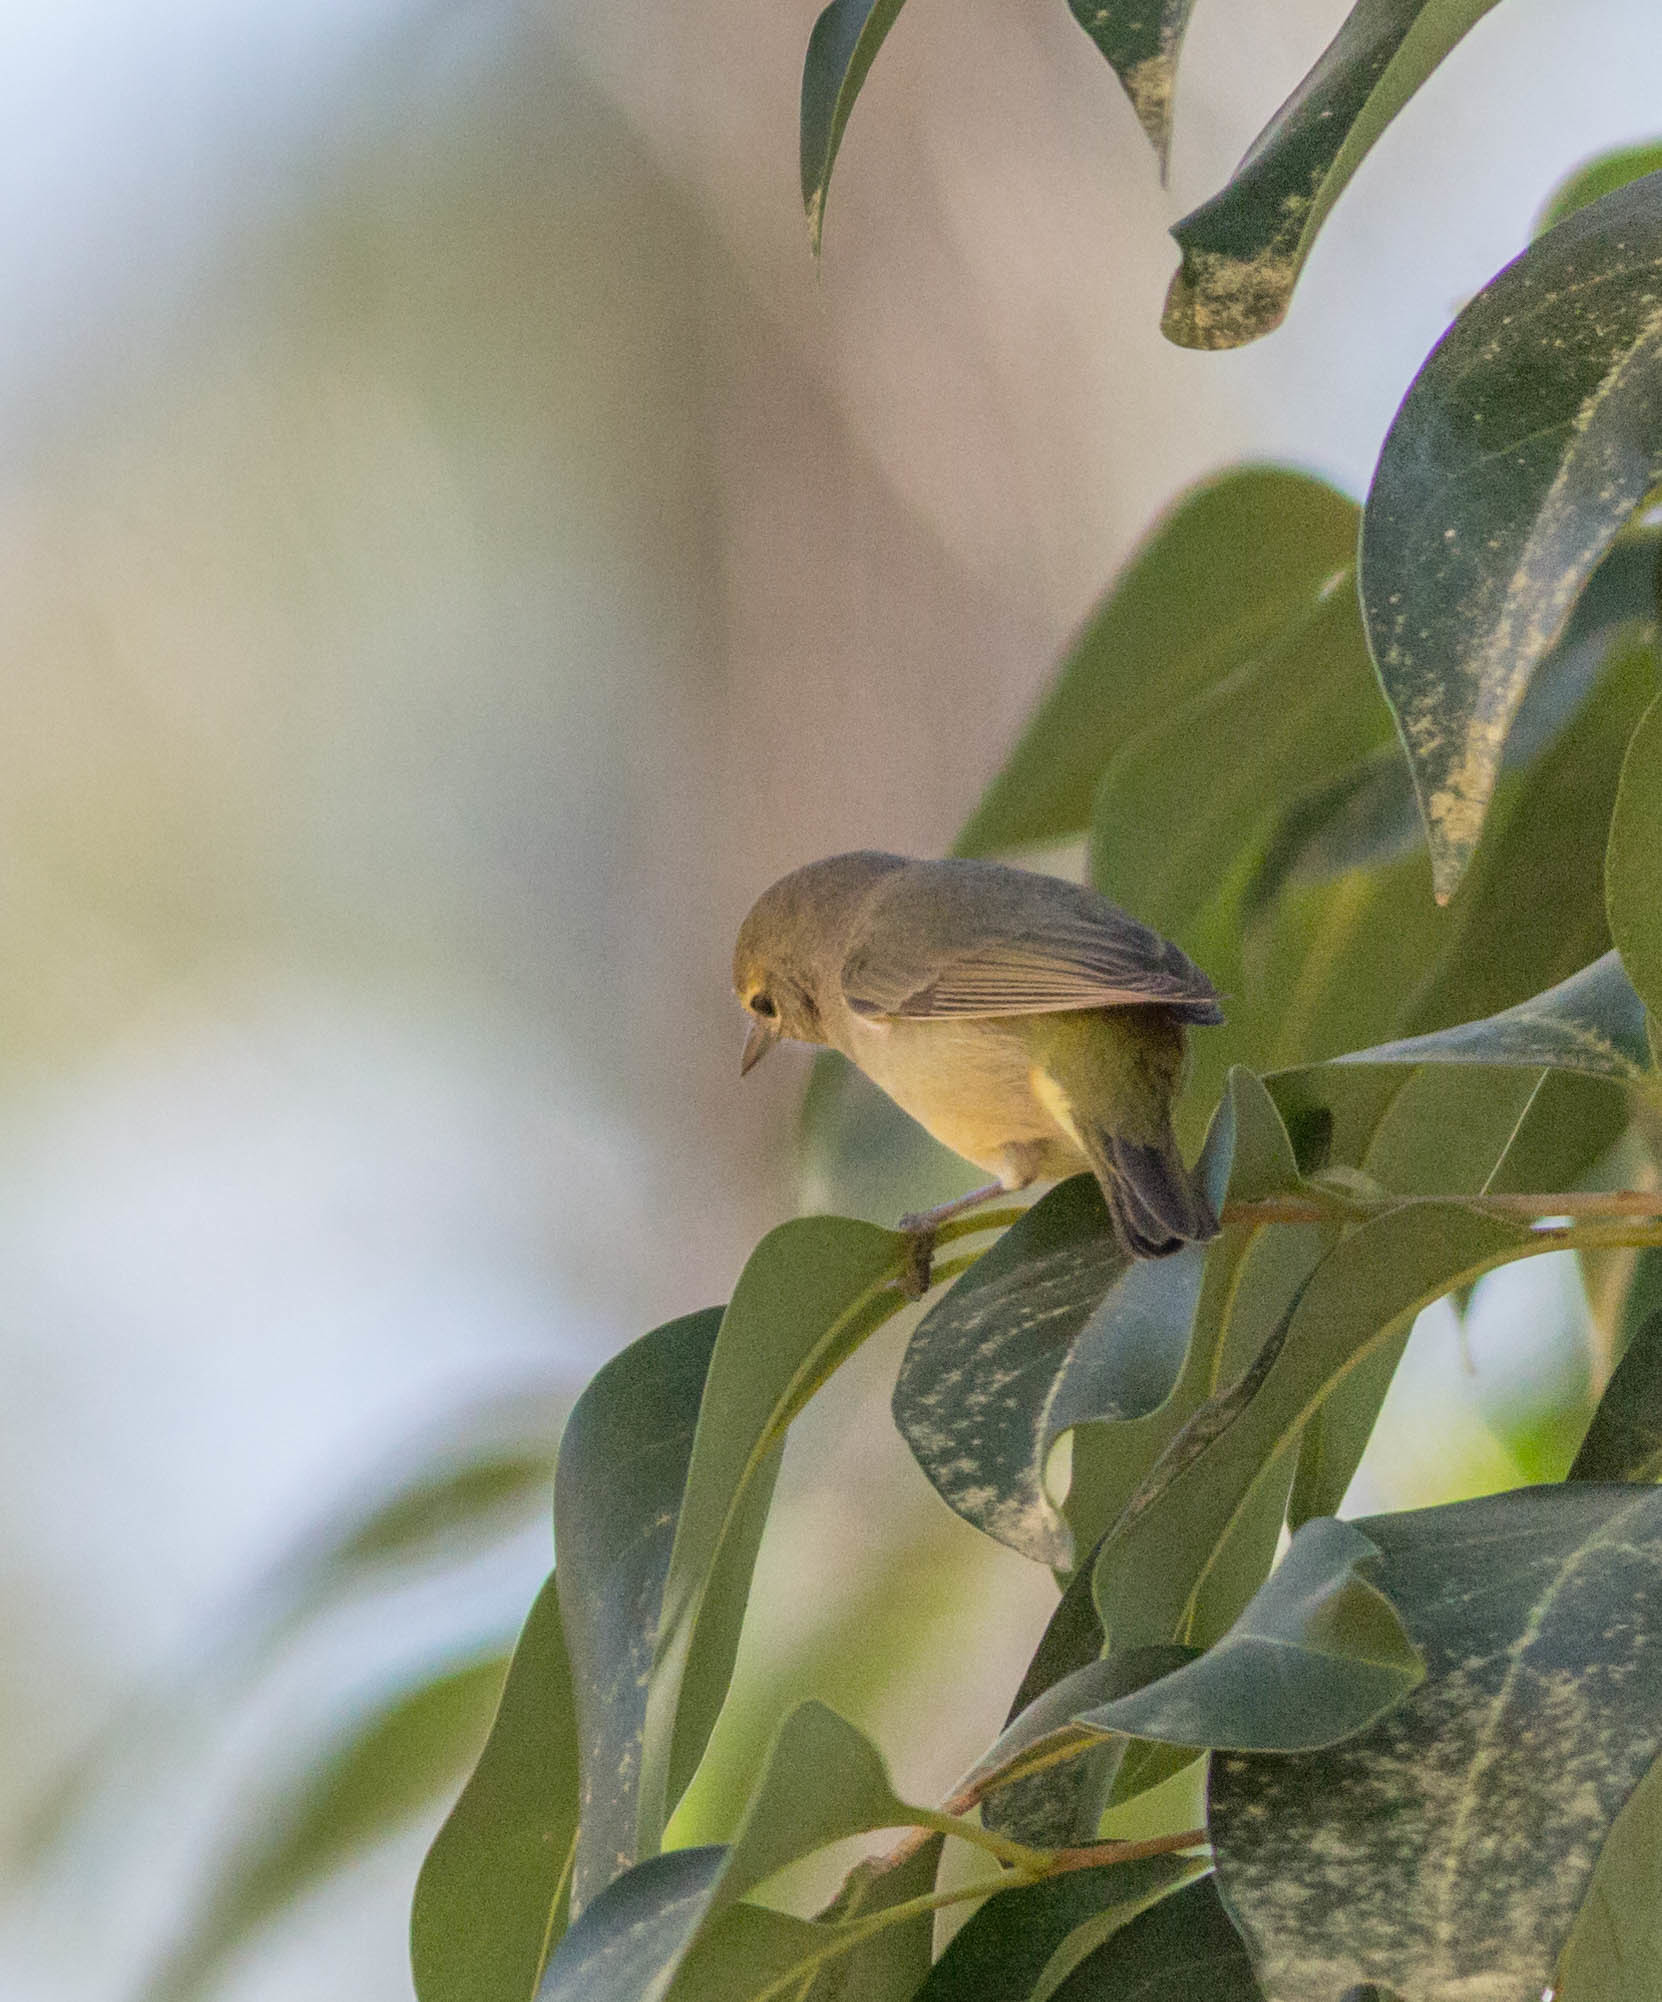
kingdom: Animalia
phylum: Chordata
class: Aves
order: Passeriformes
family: Parulidae
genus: Leiothlypis
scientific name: Leiothlypis celata
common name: Orange-crowned warbler
